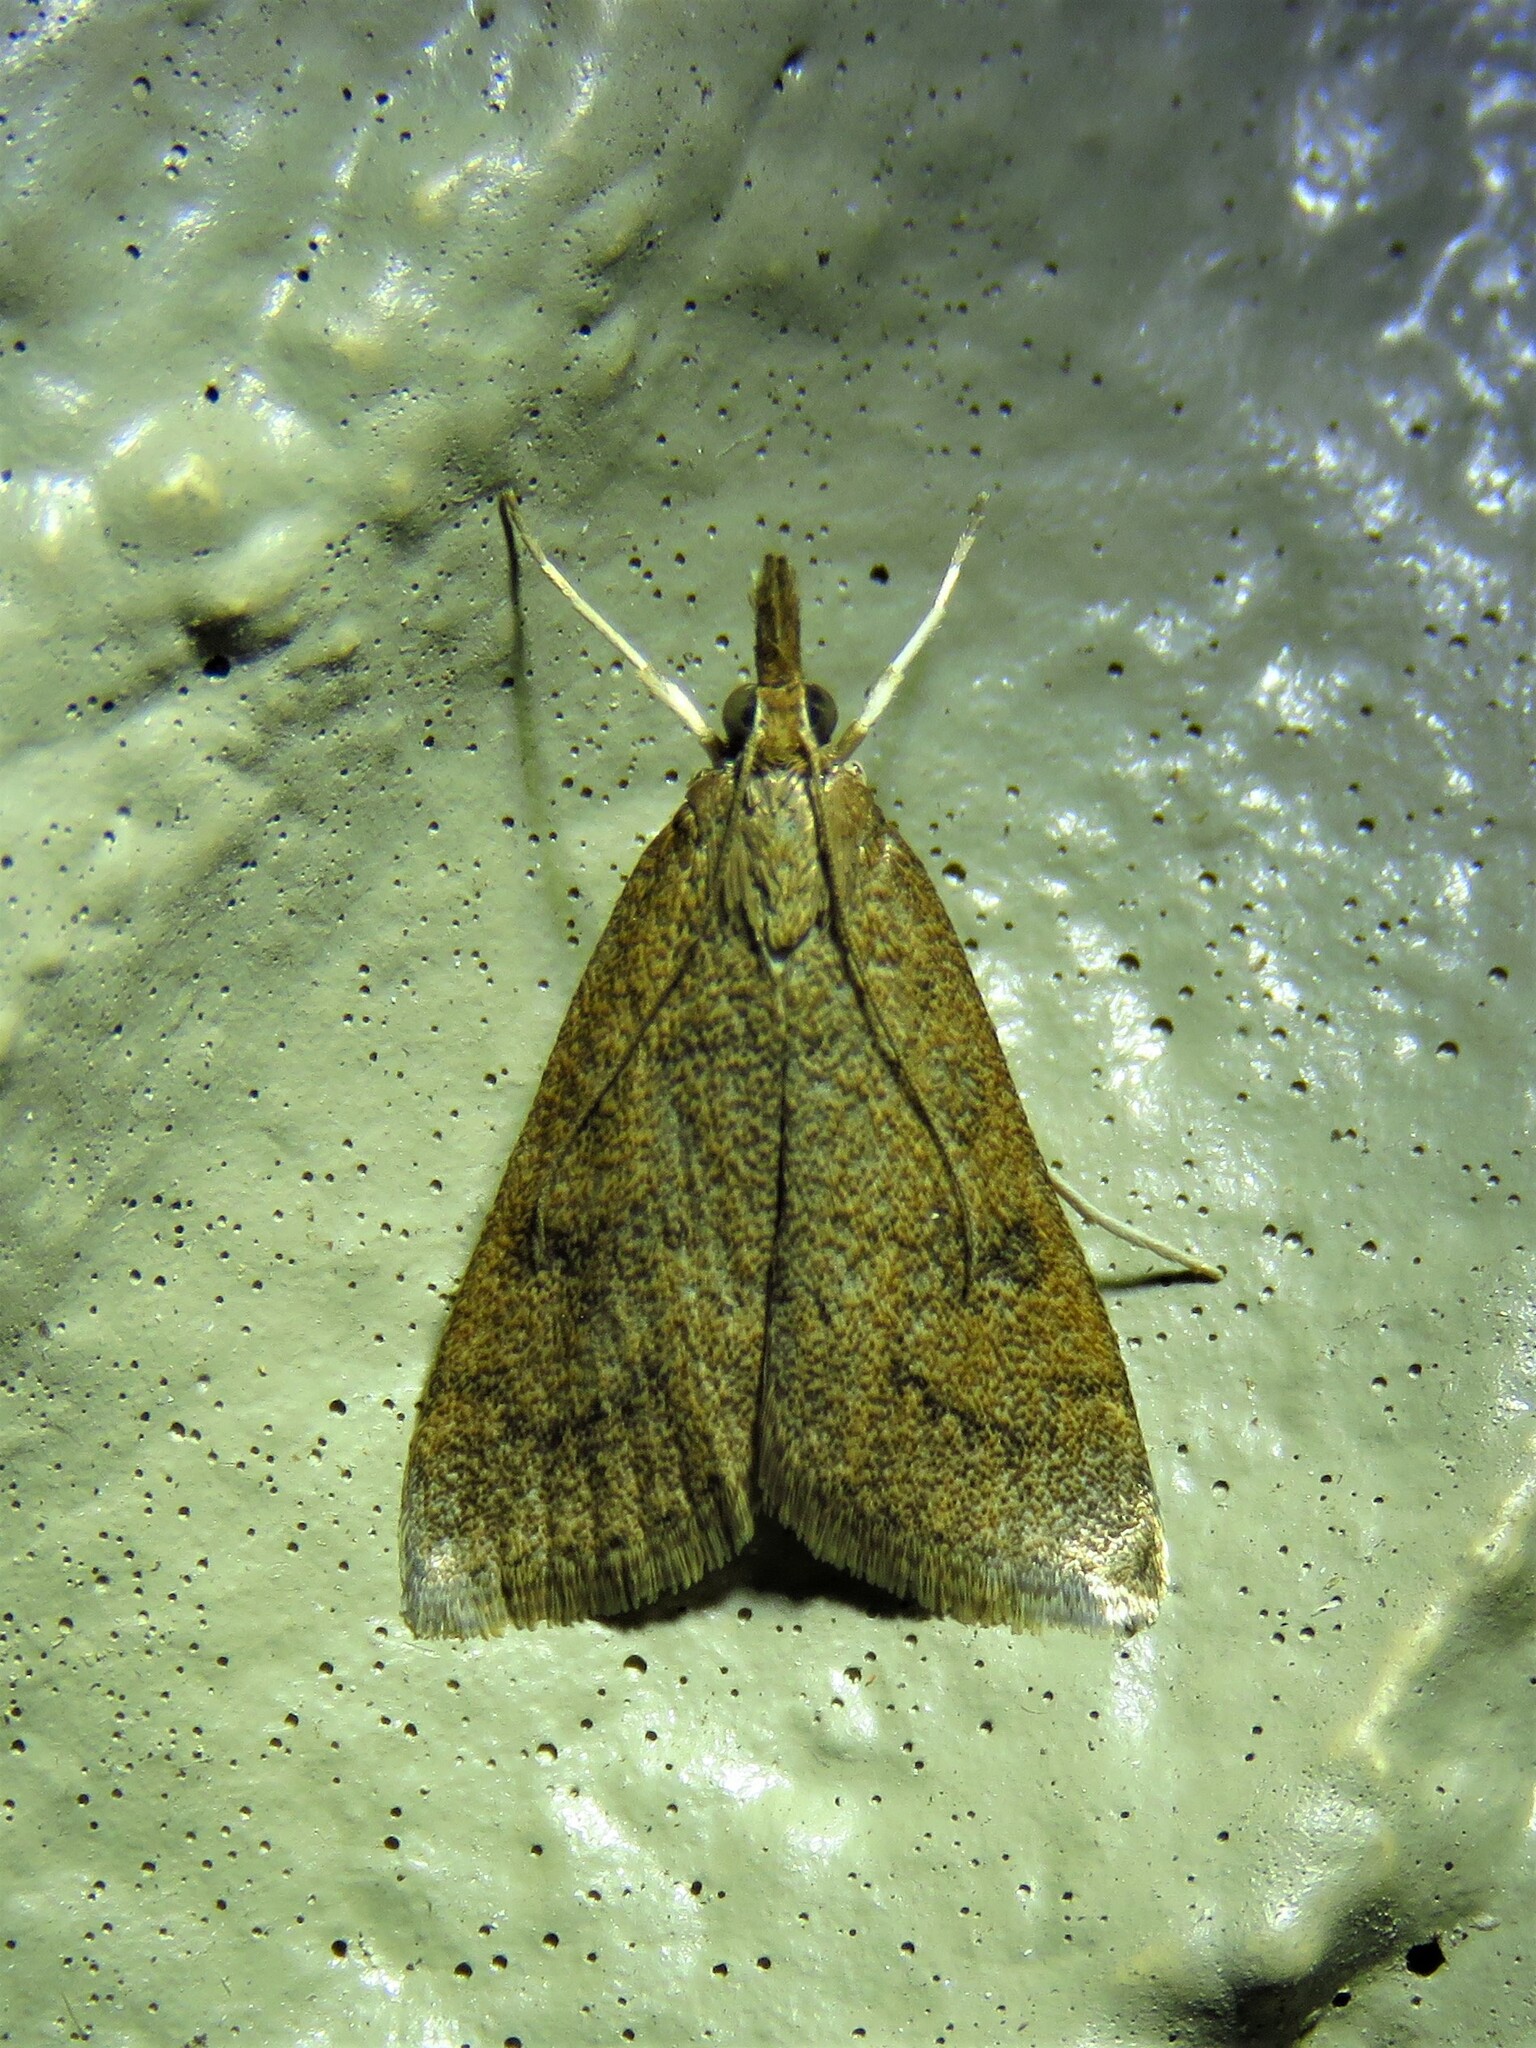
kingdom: Animalia
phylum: Arthropoda
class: Insecta
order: Lepidoptera
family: Crambidae
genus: Udea
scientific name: Udea rubigalis
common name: Celery leaftier moth
